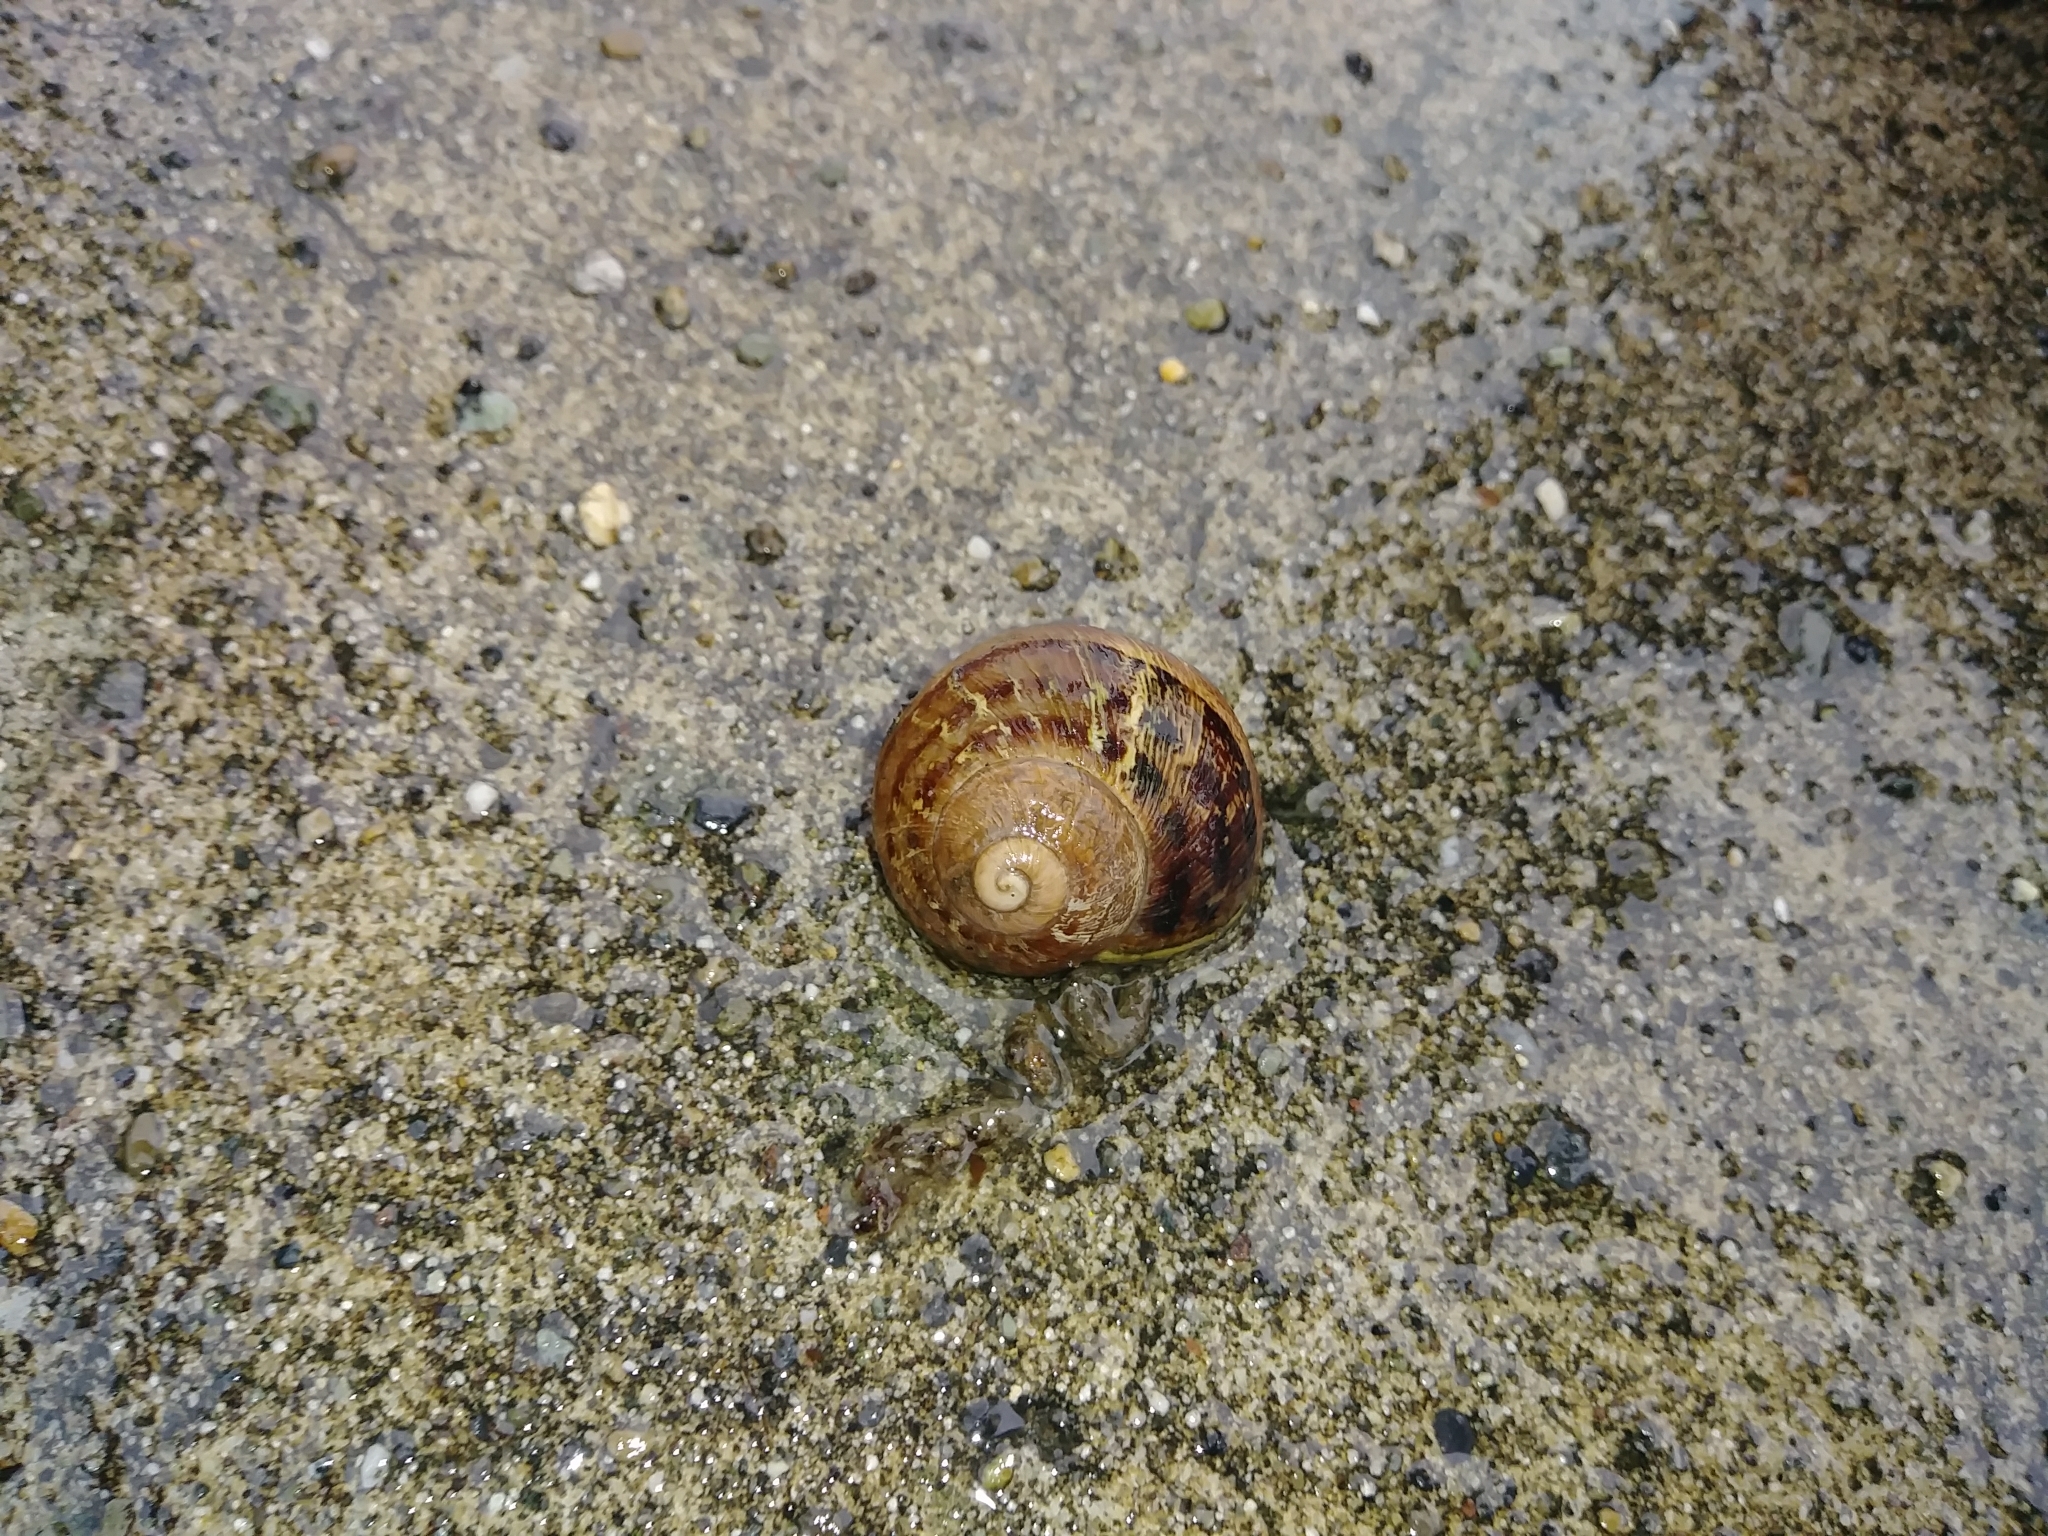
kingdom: Animalia
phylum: Mollusca
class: Gastropoda
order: Stylommatophora
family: Helicidae
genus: Cornu
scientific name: Cornu aspersum
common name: Brown garden snail
